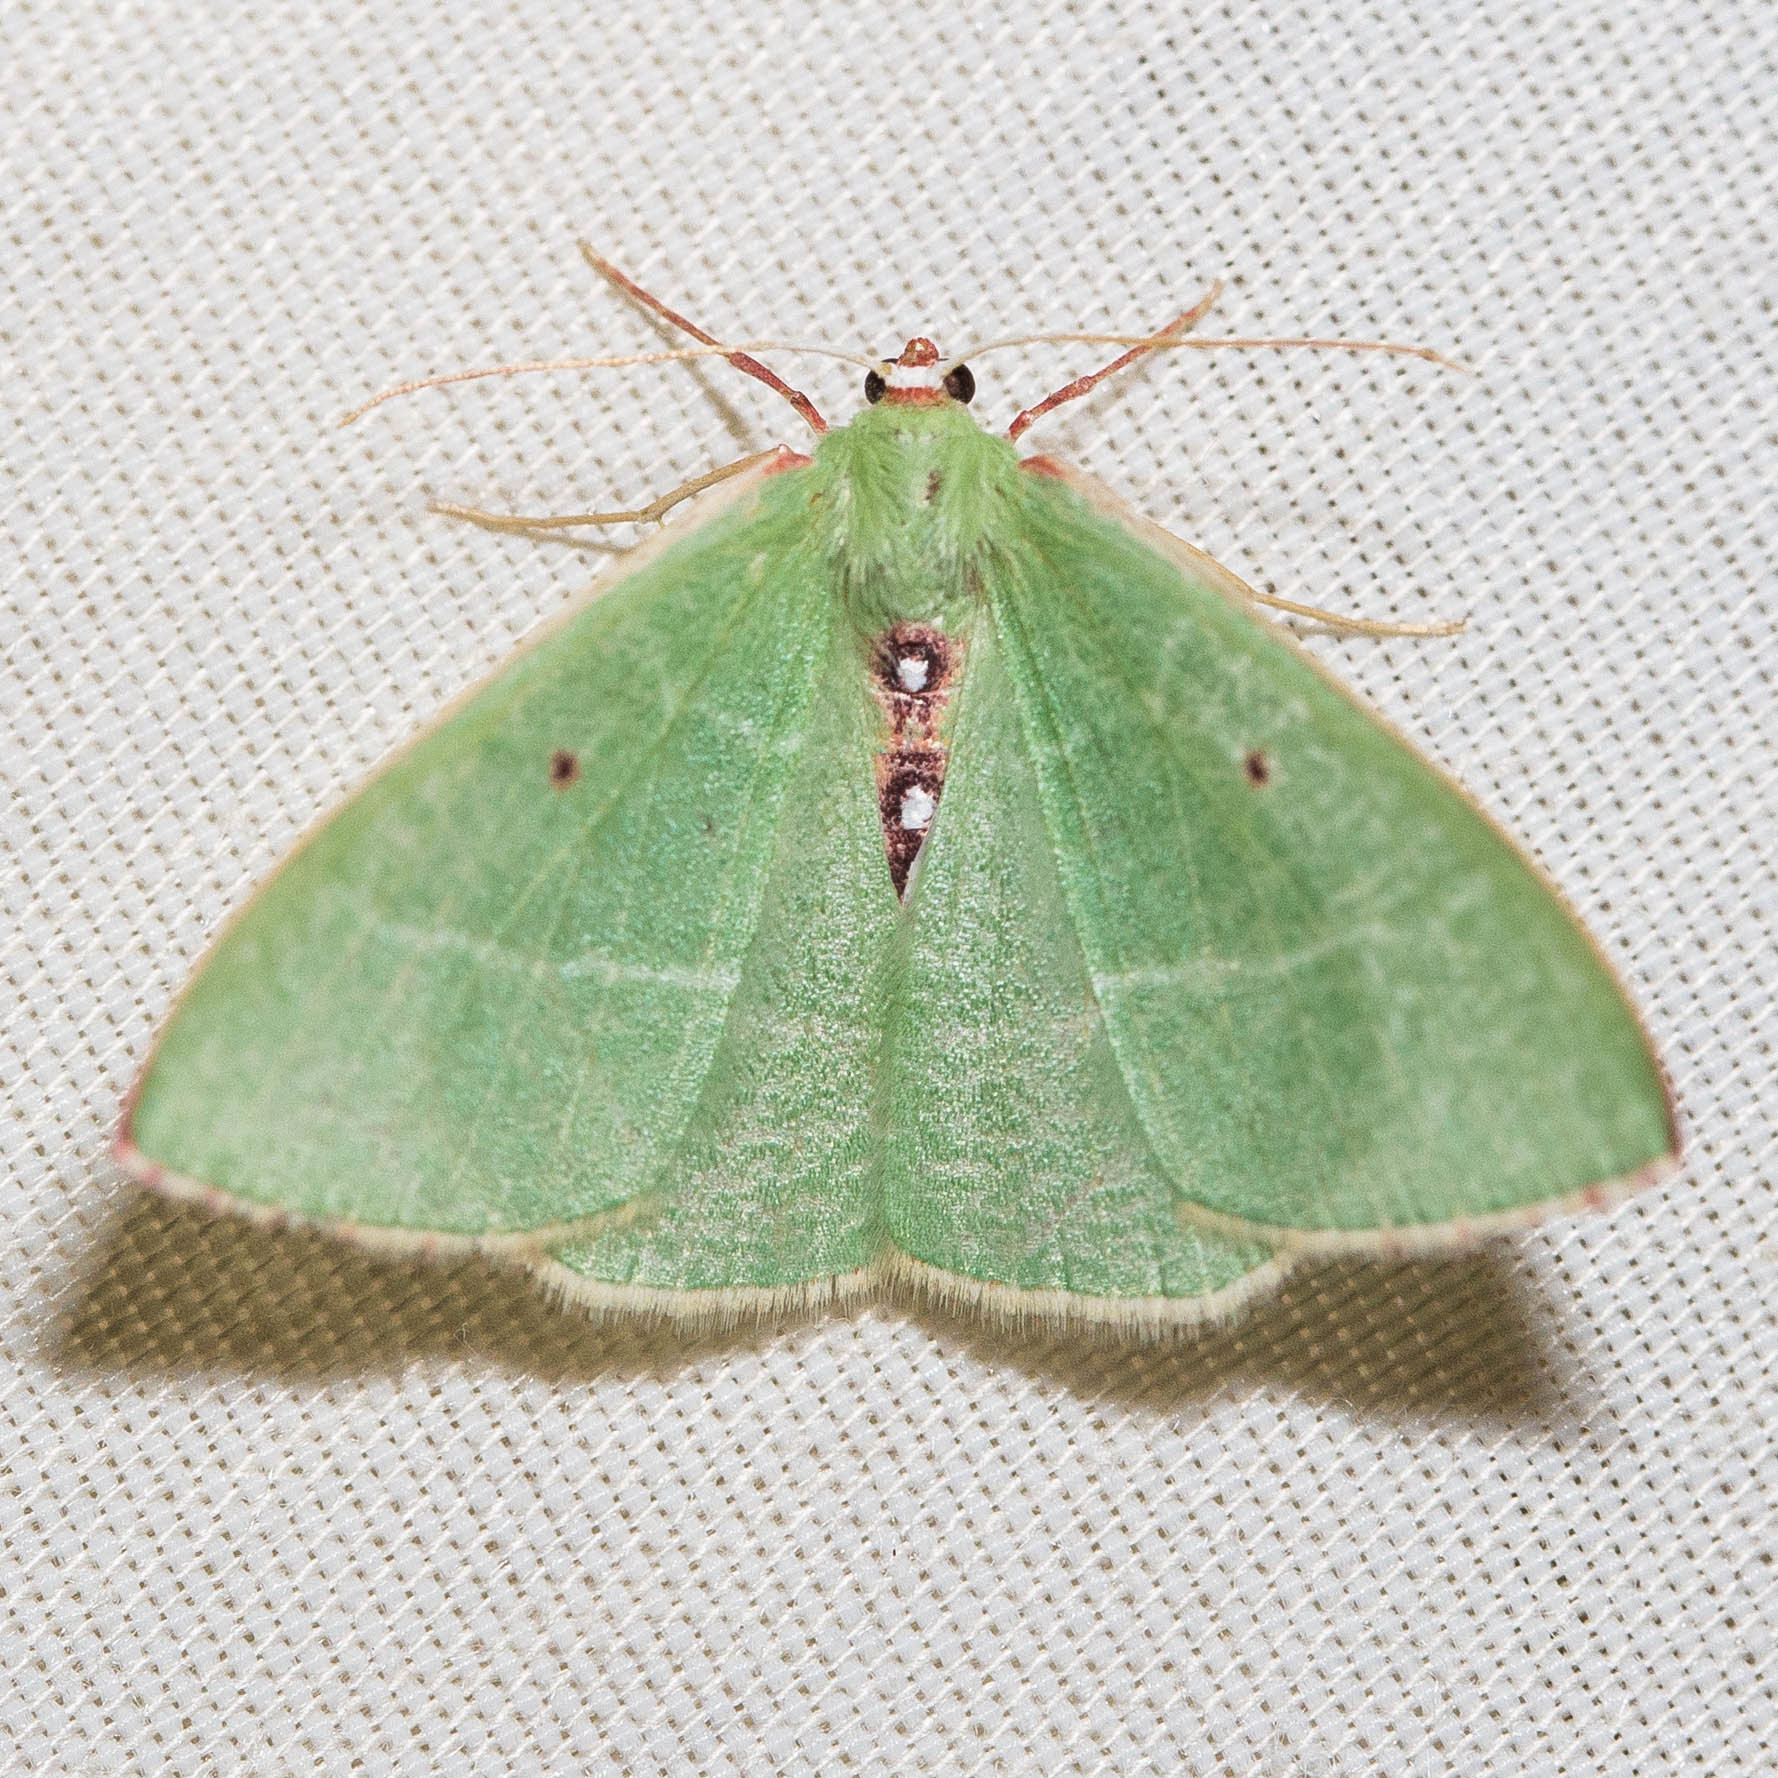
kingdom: Animalia
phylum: Arthropoda
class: Insecta
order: Lepidoptera
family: Geometridae
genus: Nemoria
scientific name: Nemoria darwiniata
